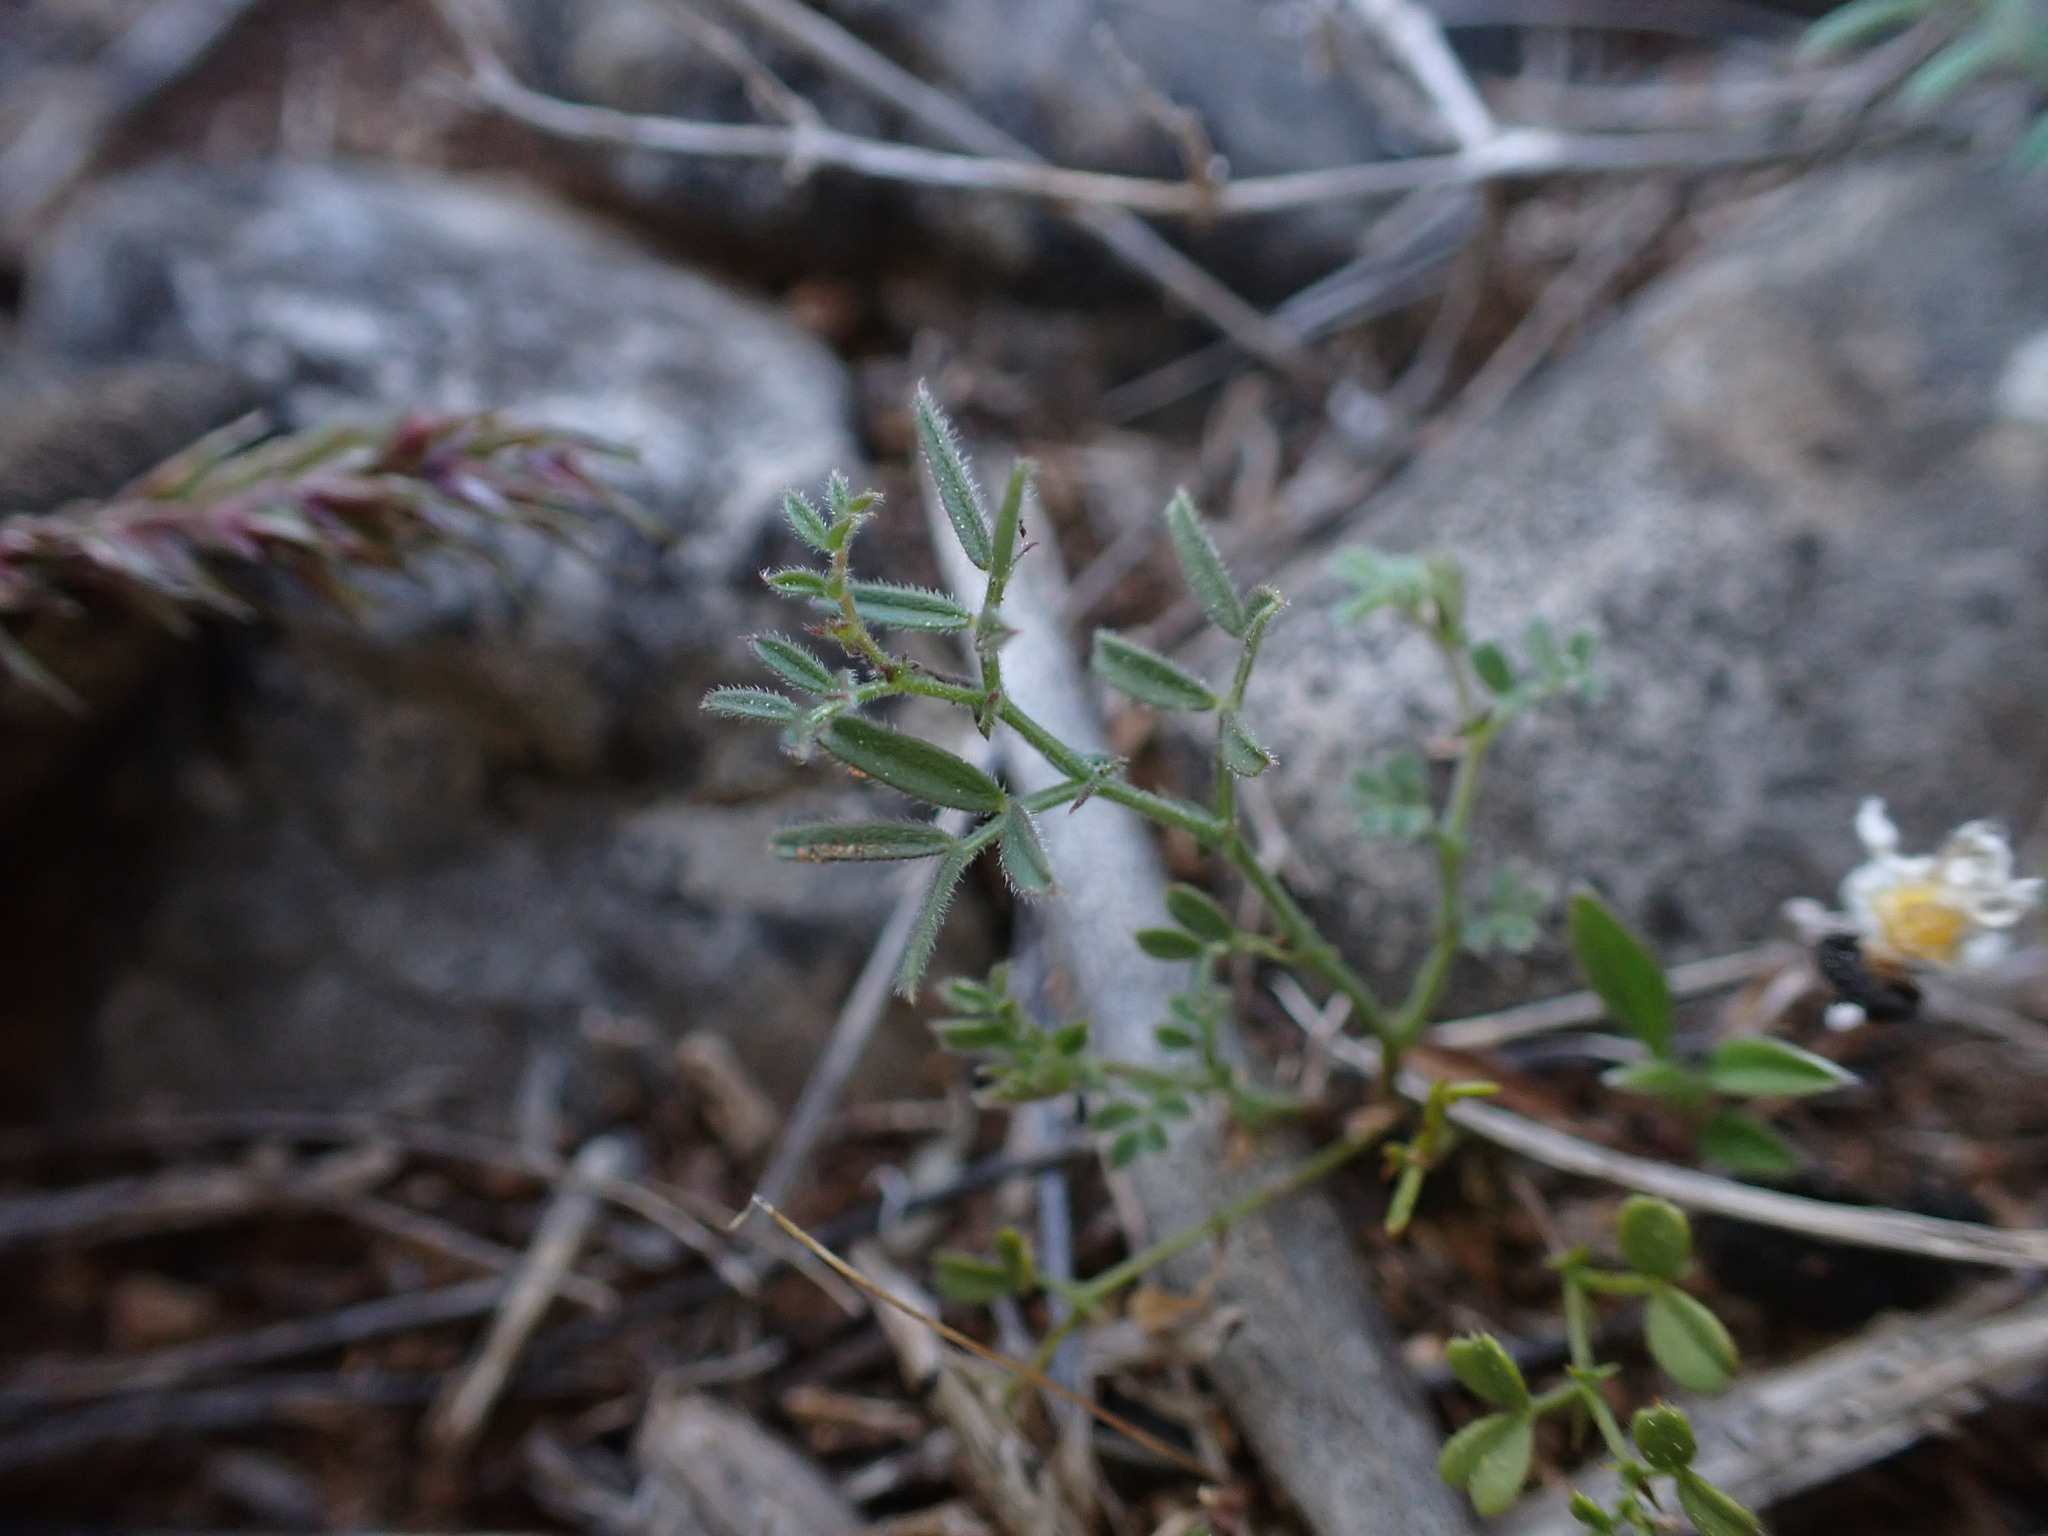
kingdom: Plantae
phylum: Tracheophyta
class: Magnoliopsida
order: Malvales
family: Cistaceae
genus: Helianthemum
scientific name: Helianthemum apenninum
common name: White rock-rose
